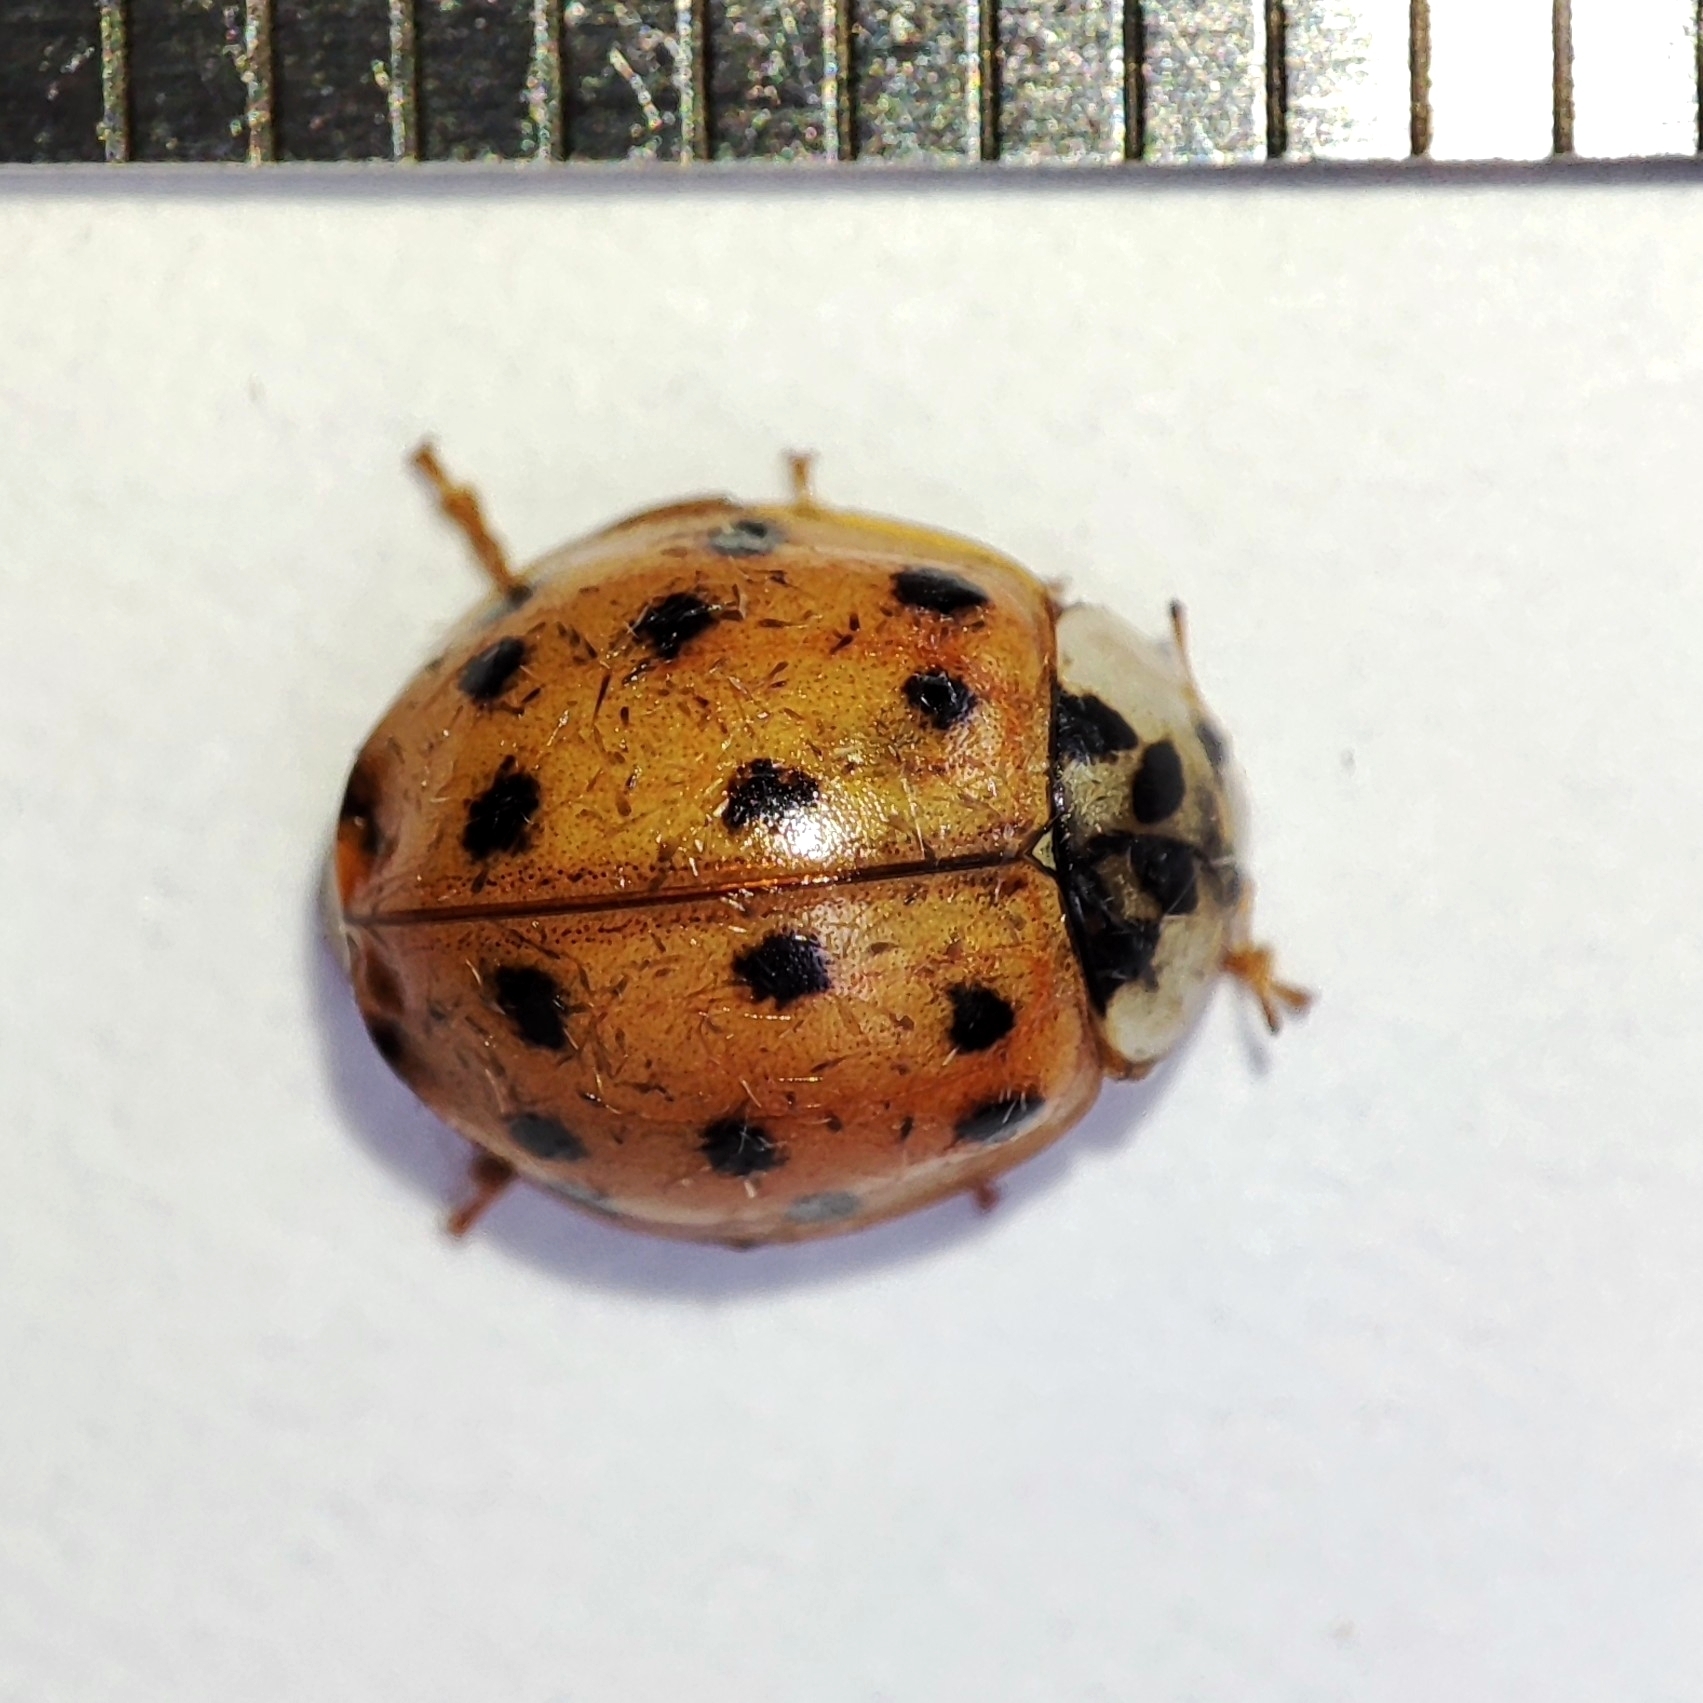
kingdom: Animalia
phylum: Arthropoda
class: Insecta
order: Coleoptera
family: Coccinellidae
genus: Harmonia
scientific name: Harmonia axyridis
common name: Harlequin ladybird
